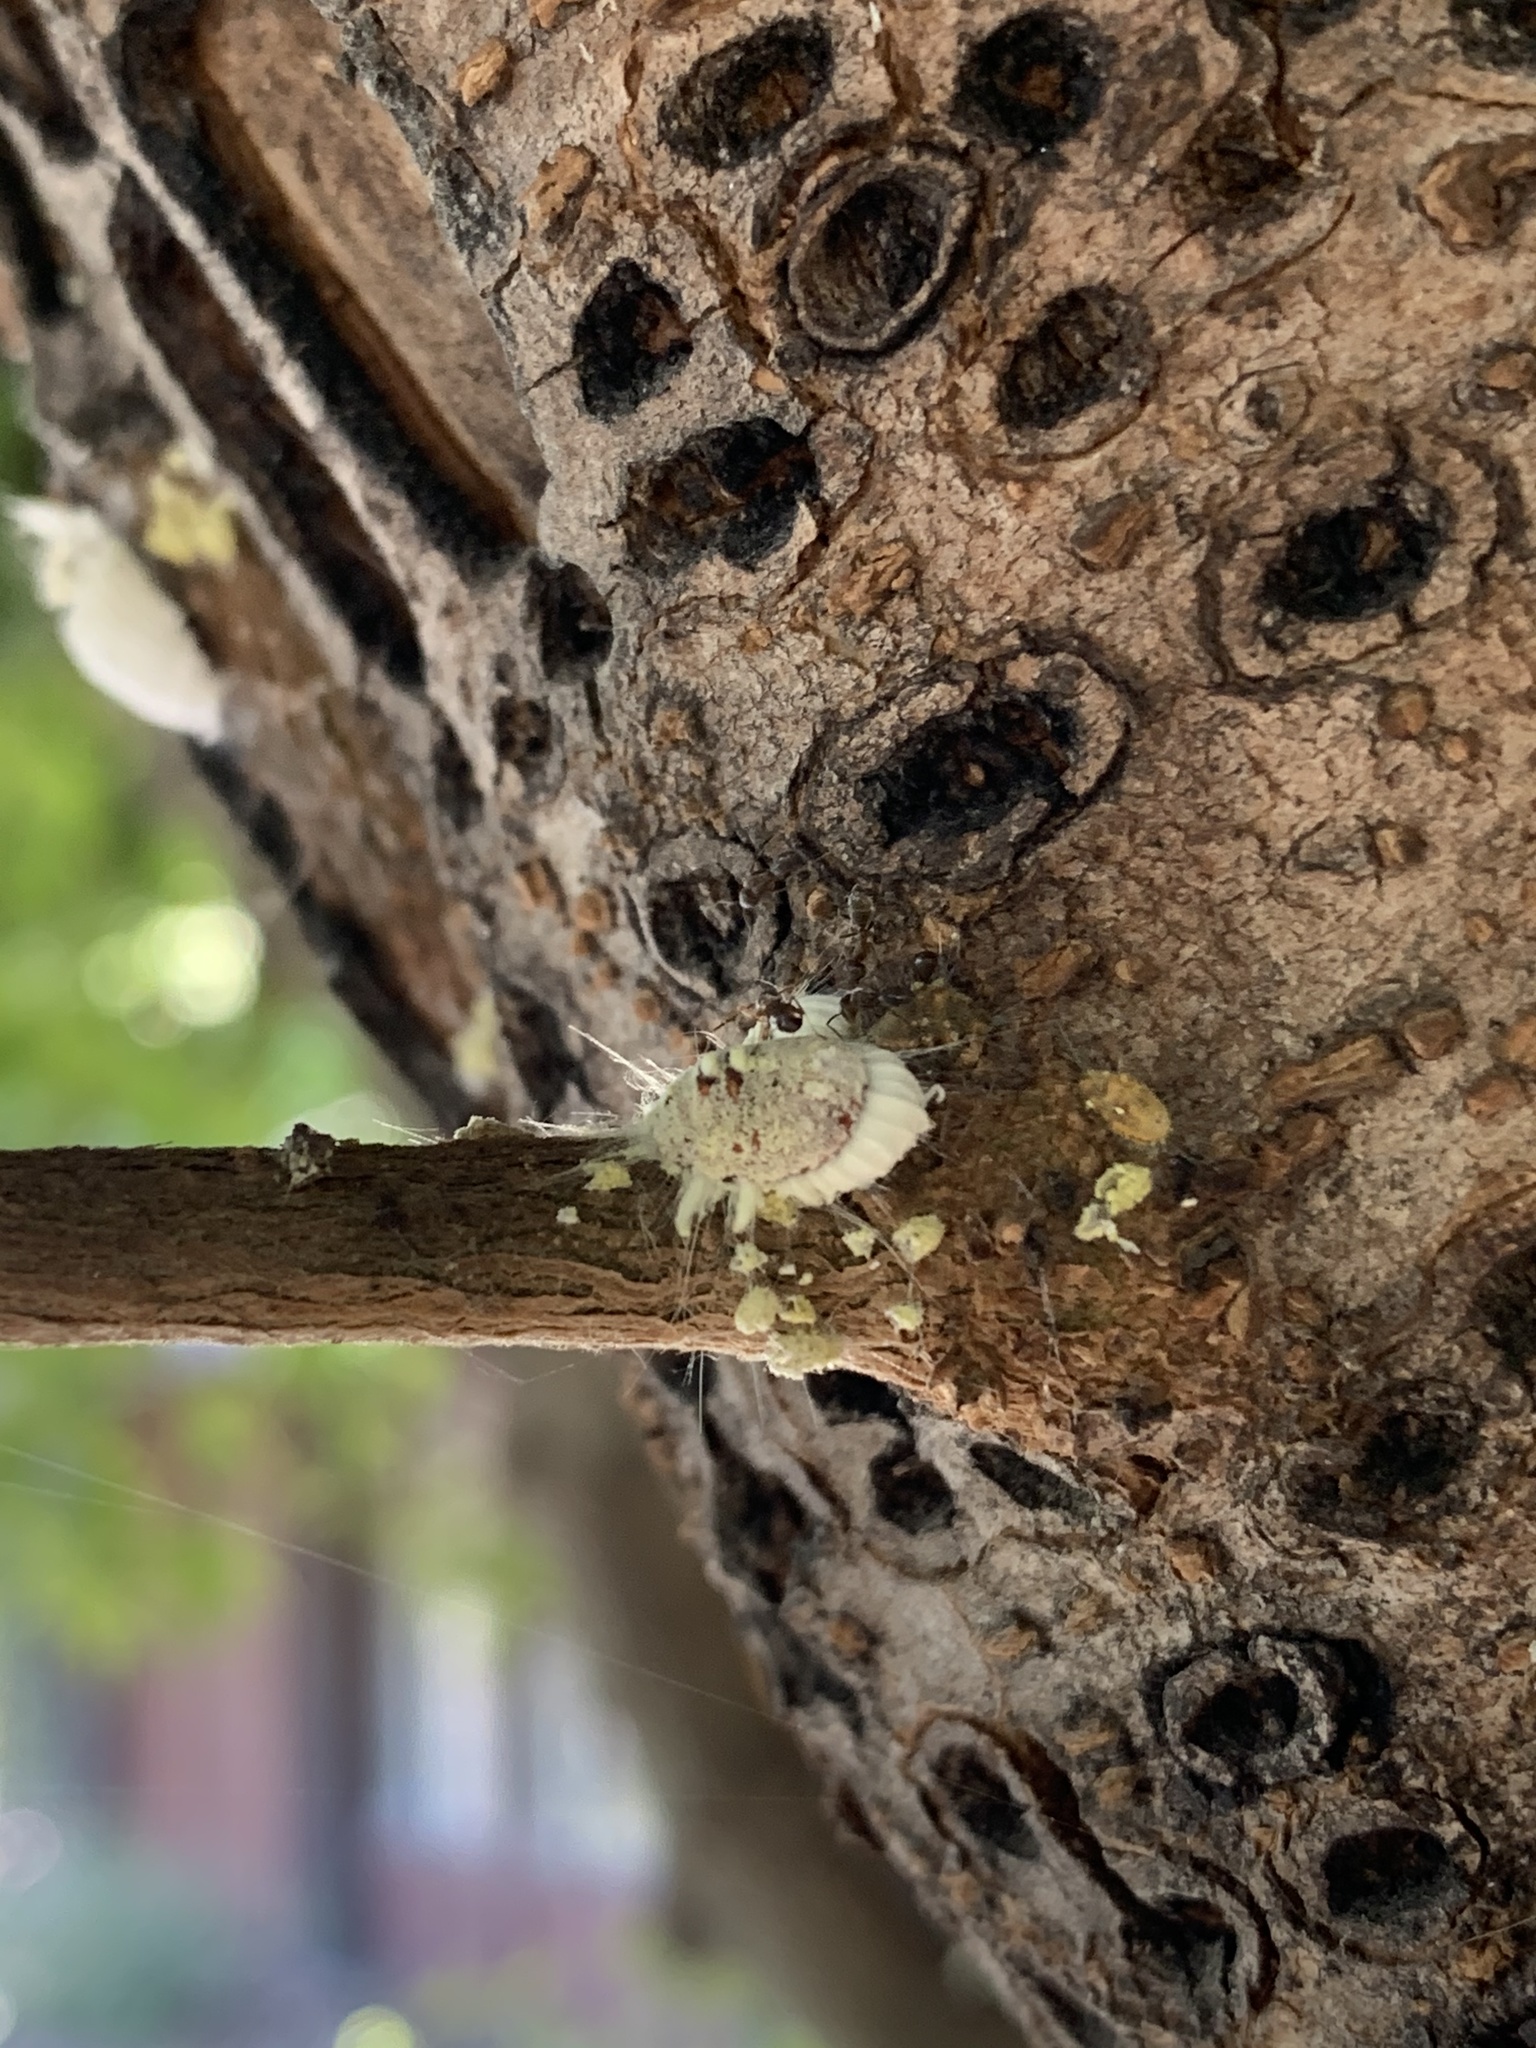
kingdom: Animalia
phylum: Arthropoda
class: Insecta
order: Hemiptera
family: Margarodidae
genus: Icerya
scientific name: Icerya purchasi
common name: Cottony cushion scale
